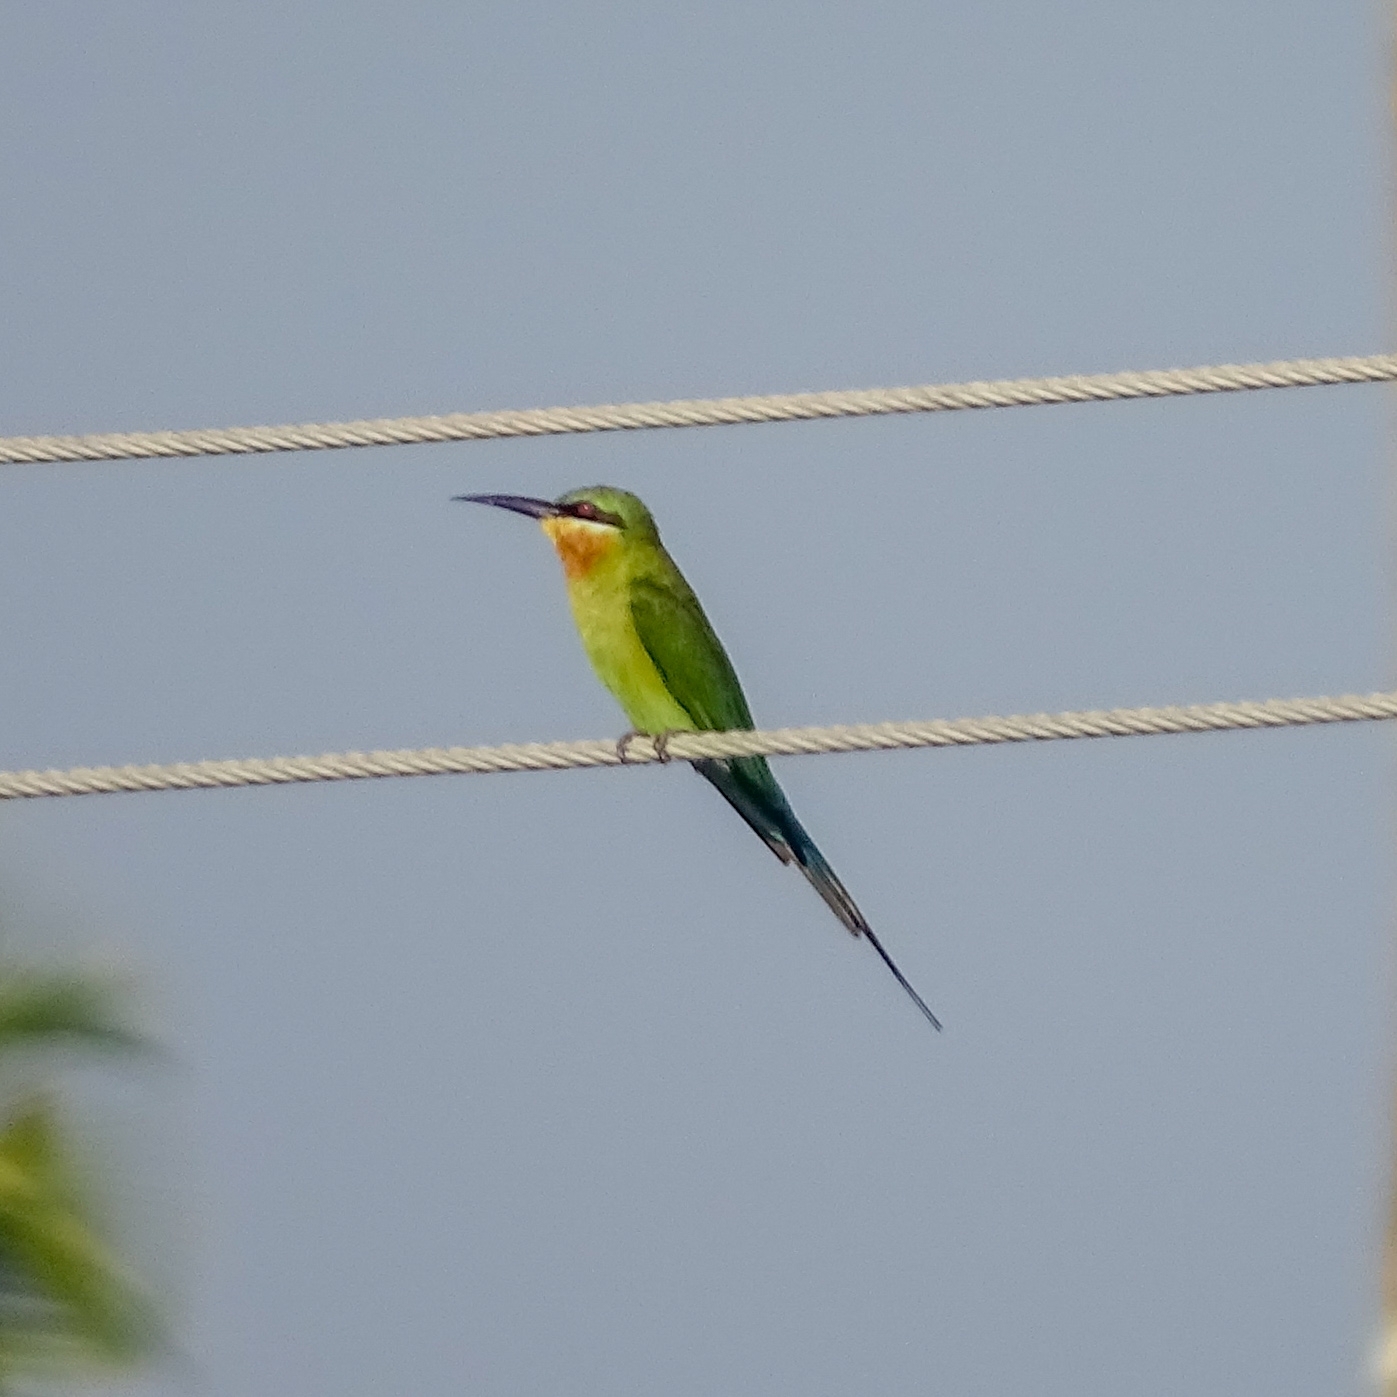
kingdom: Animalia
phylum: Chordata
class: Aves
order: Coraciiformes
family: Meropidae
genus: Merops
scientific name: Merops philippinus
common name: Blue-tailed bee-eater
